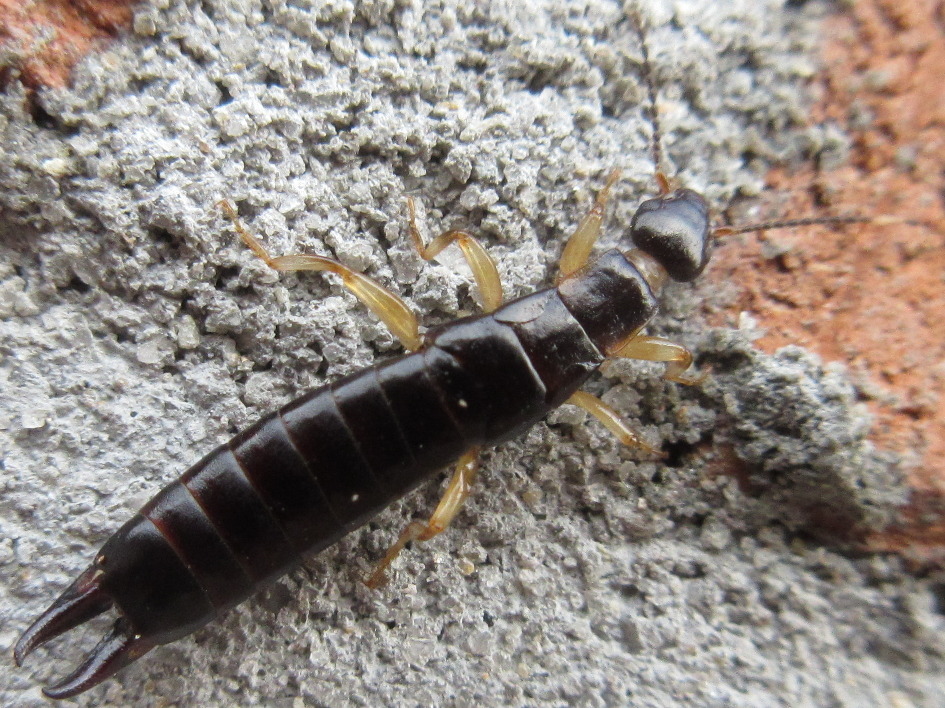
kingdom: Animalia
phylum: Arthropoda
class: Insecta
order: Dermaptera
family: Anisolabididae
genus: Euborellia
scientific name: Euborellia annulata
